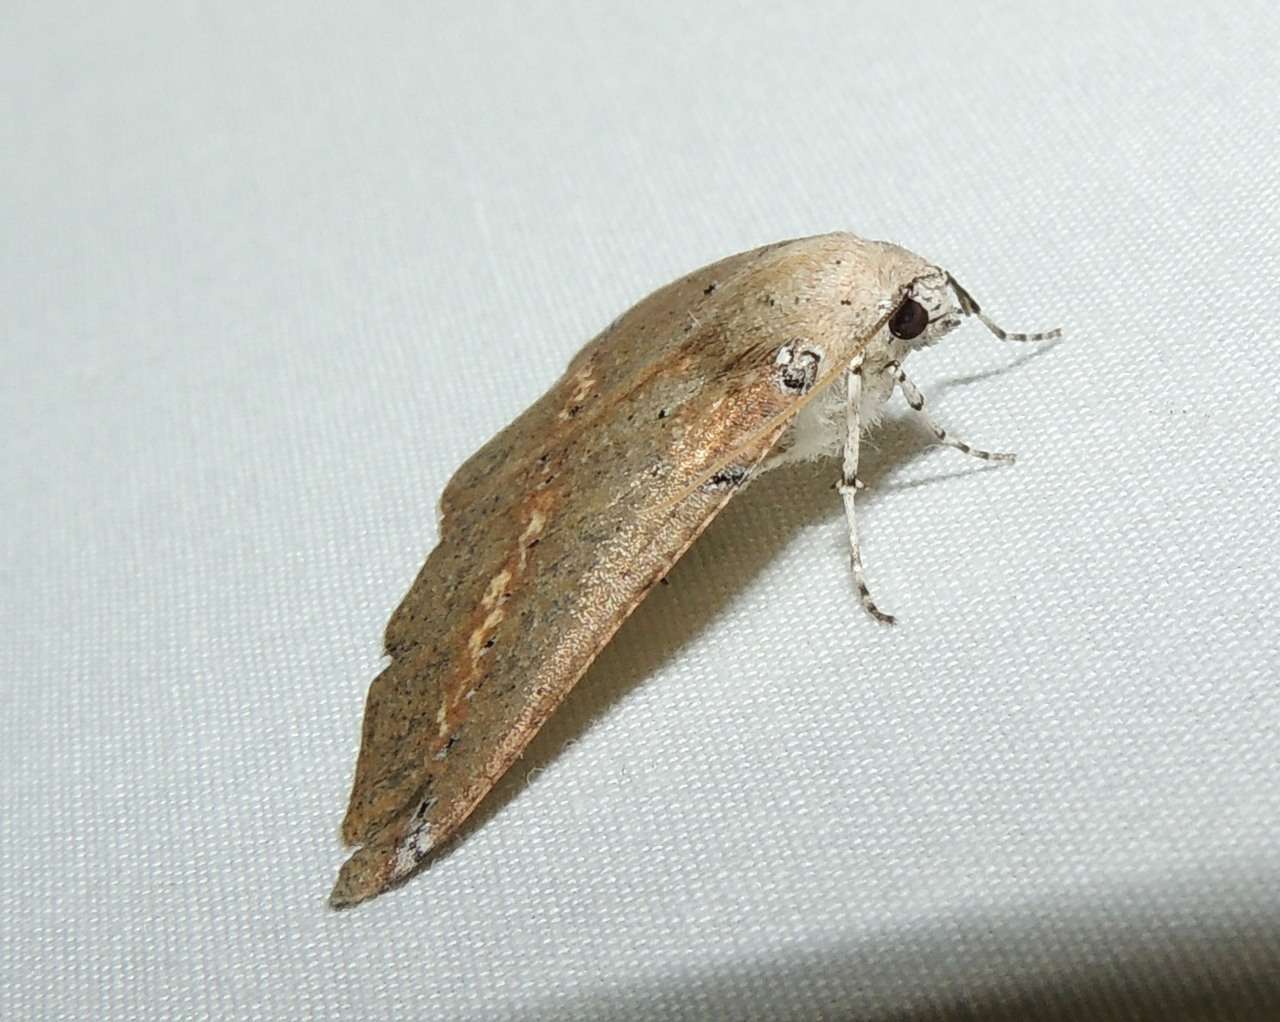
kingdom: Animalia
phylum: Arthropoda
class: Insecta
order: Lepidoptera
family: Geometridae
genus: Cassythaphaga
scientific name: Cassythaphaga macarta
